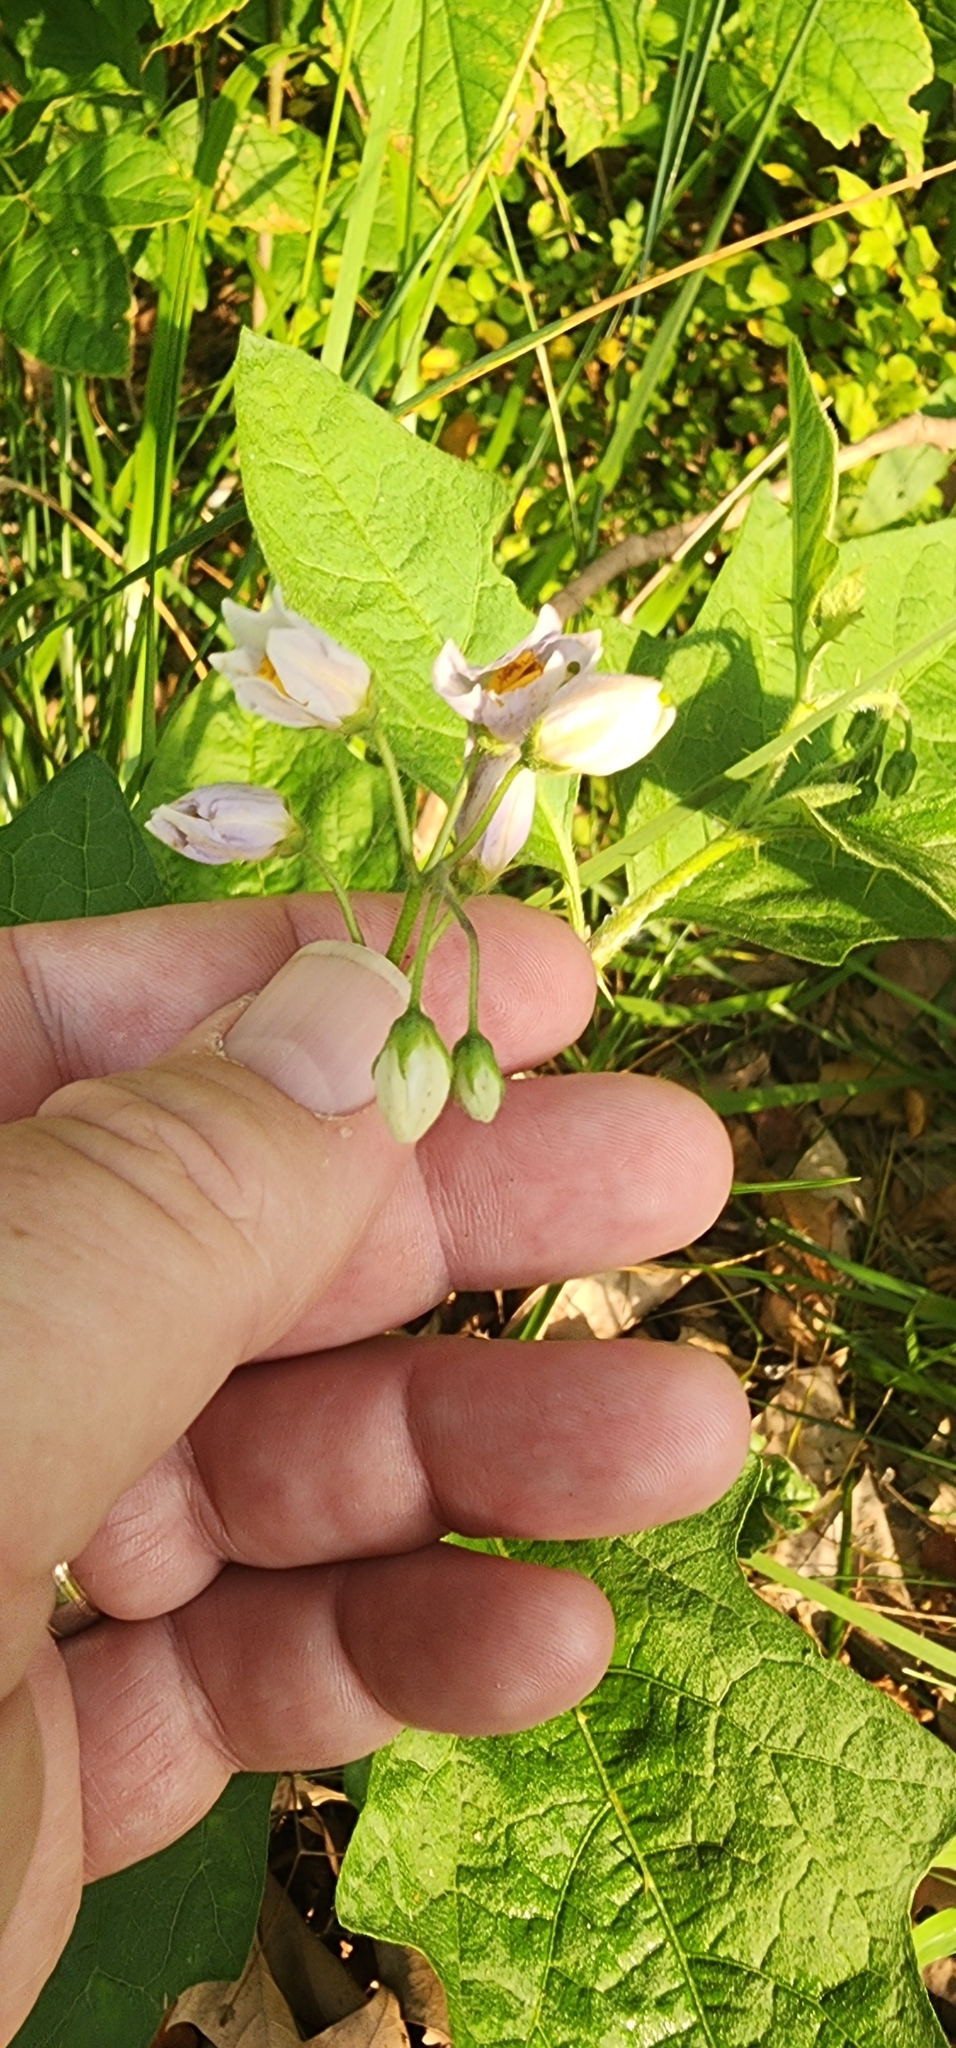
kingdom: Plantae
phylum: Tracheophyta
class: Magnoliopsida
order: Solanales
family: Solanaceae
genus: Solanum
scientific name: Solanum carolinense
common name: Horse-nettle
